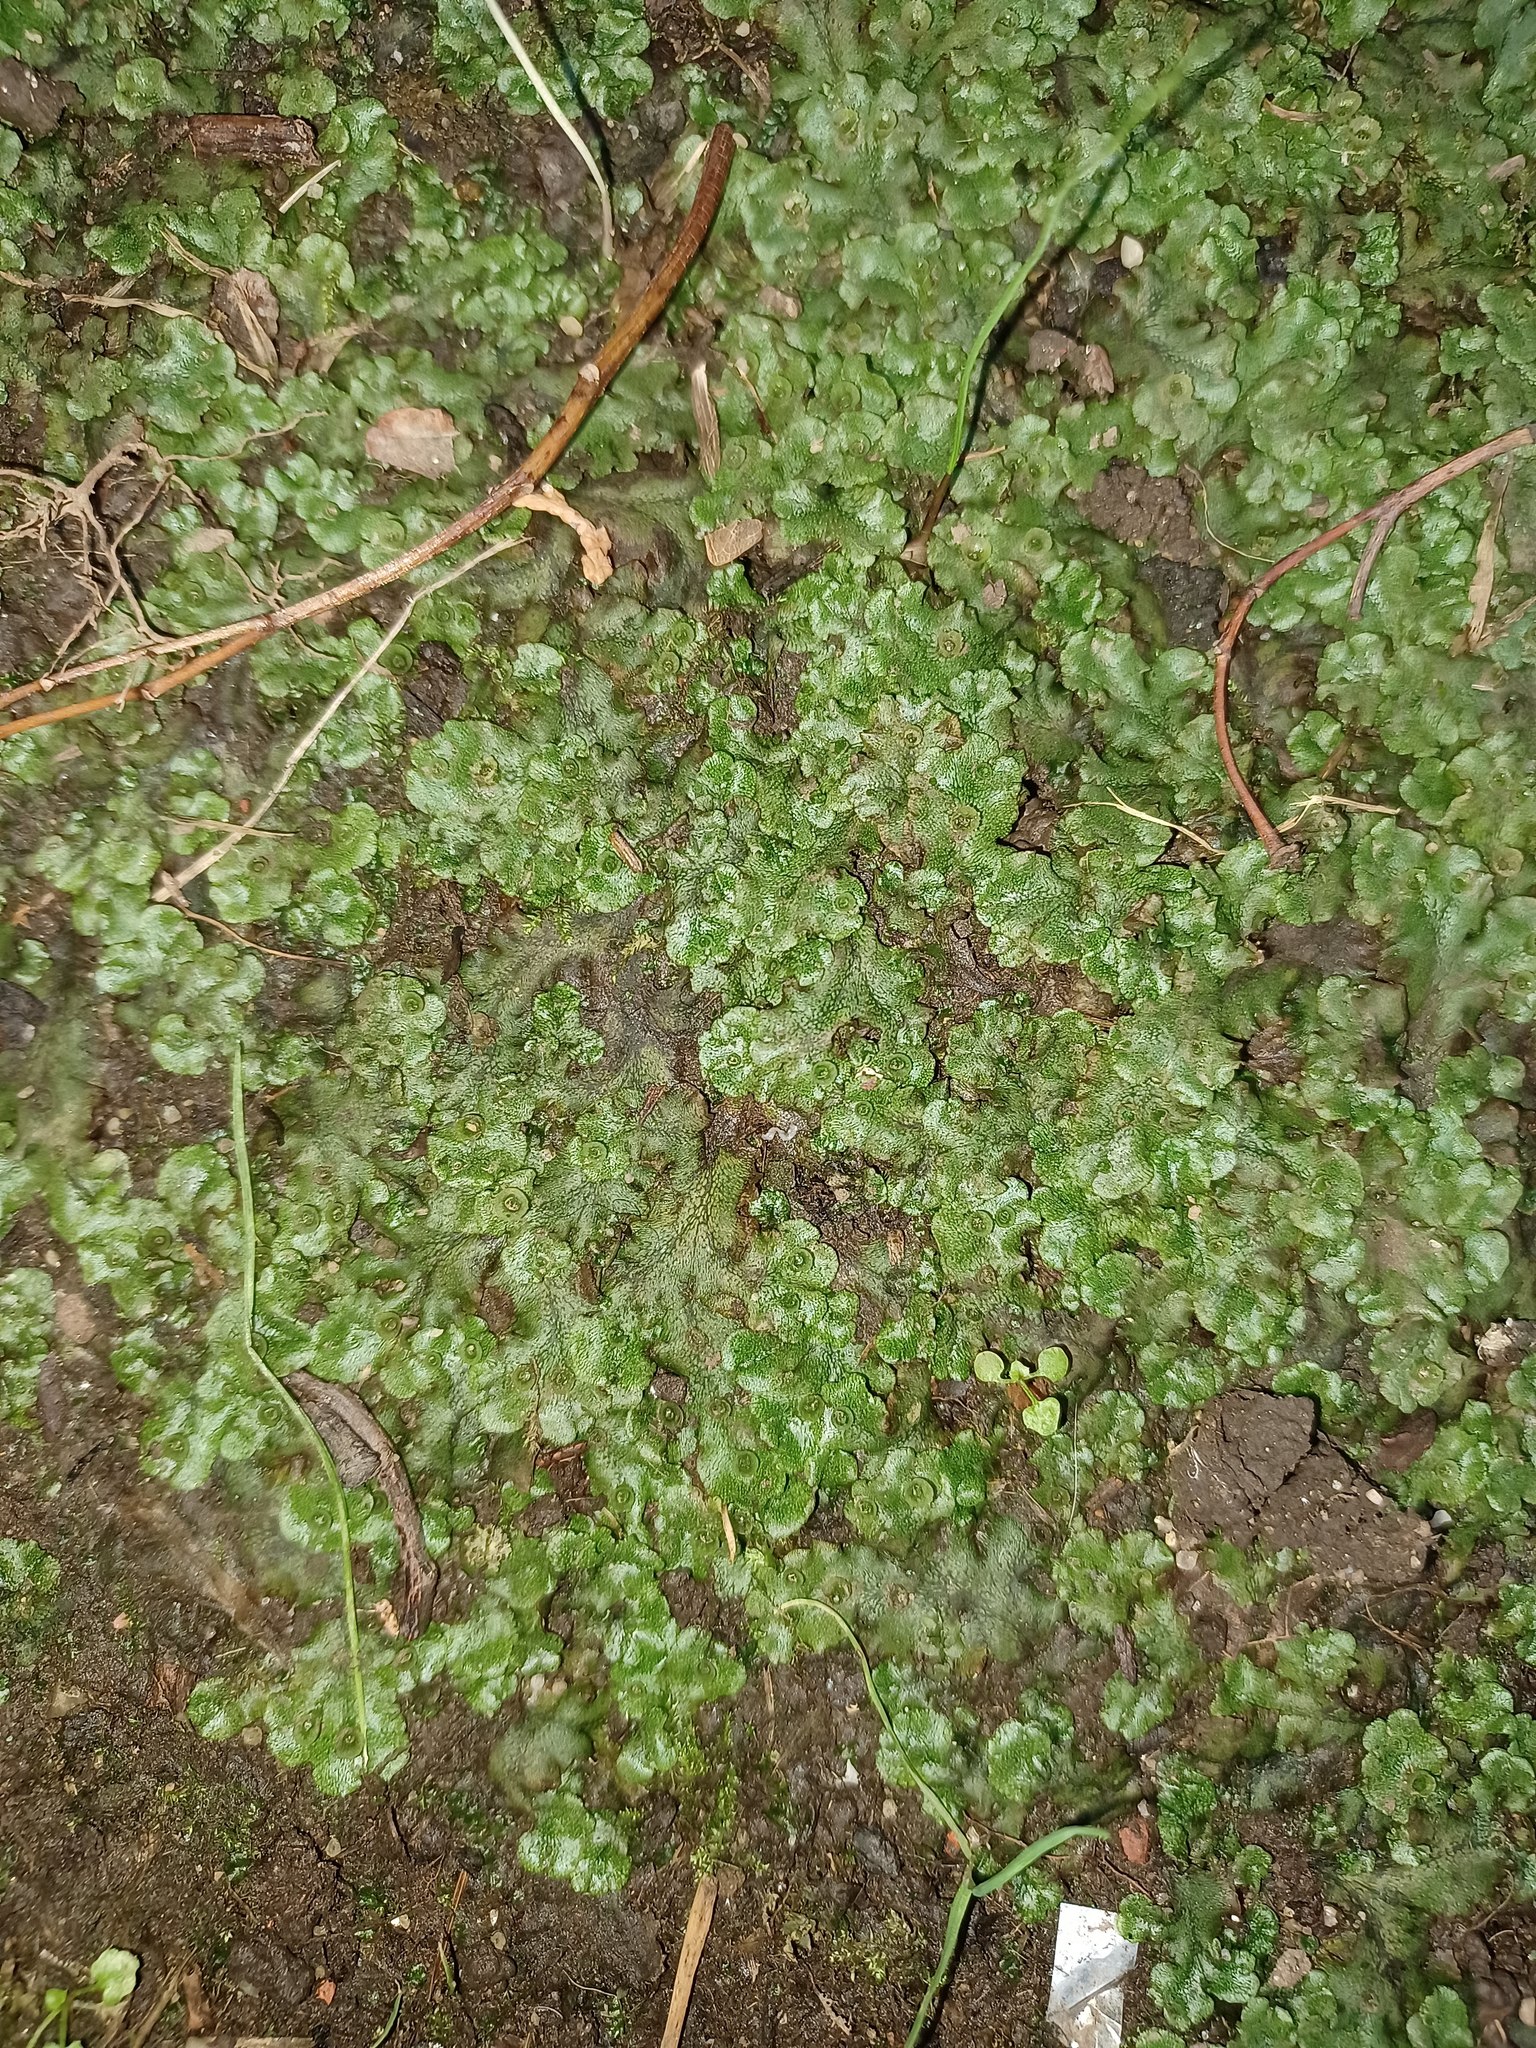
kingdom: Plantae
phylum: Marchantiophyta
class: Marchantiopsida
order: Marchantiales
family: Marchantiaceae
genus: Marchantia
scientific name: Marchantia polymorpha
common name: Common liverwort
